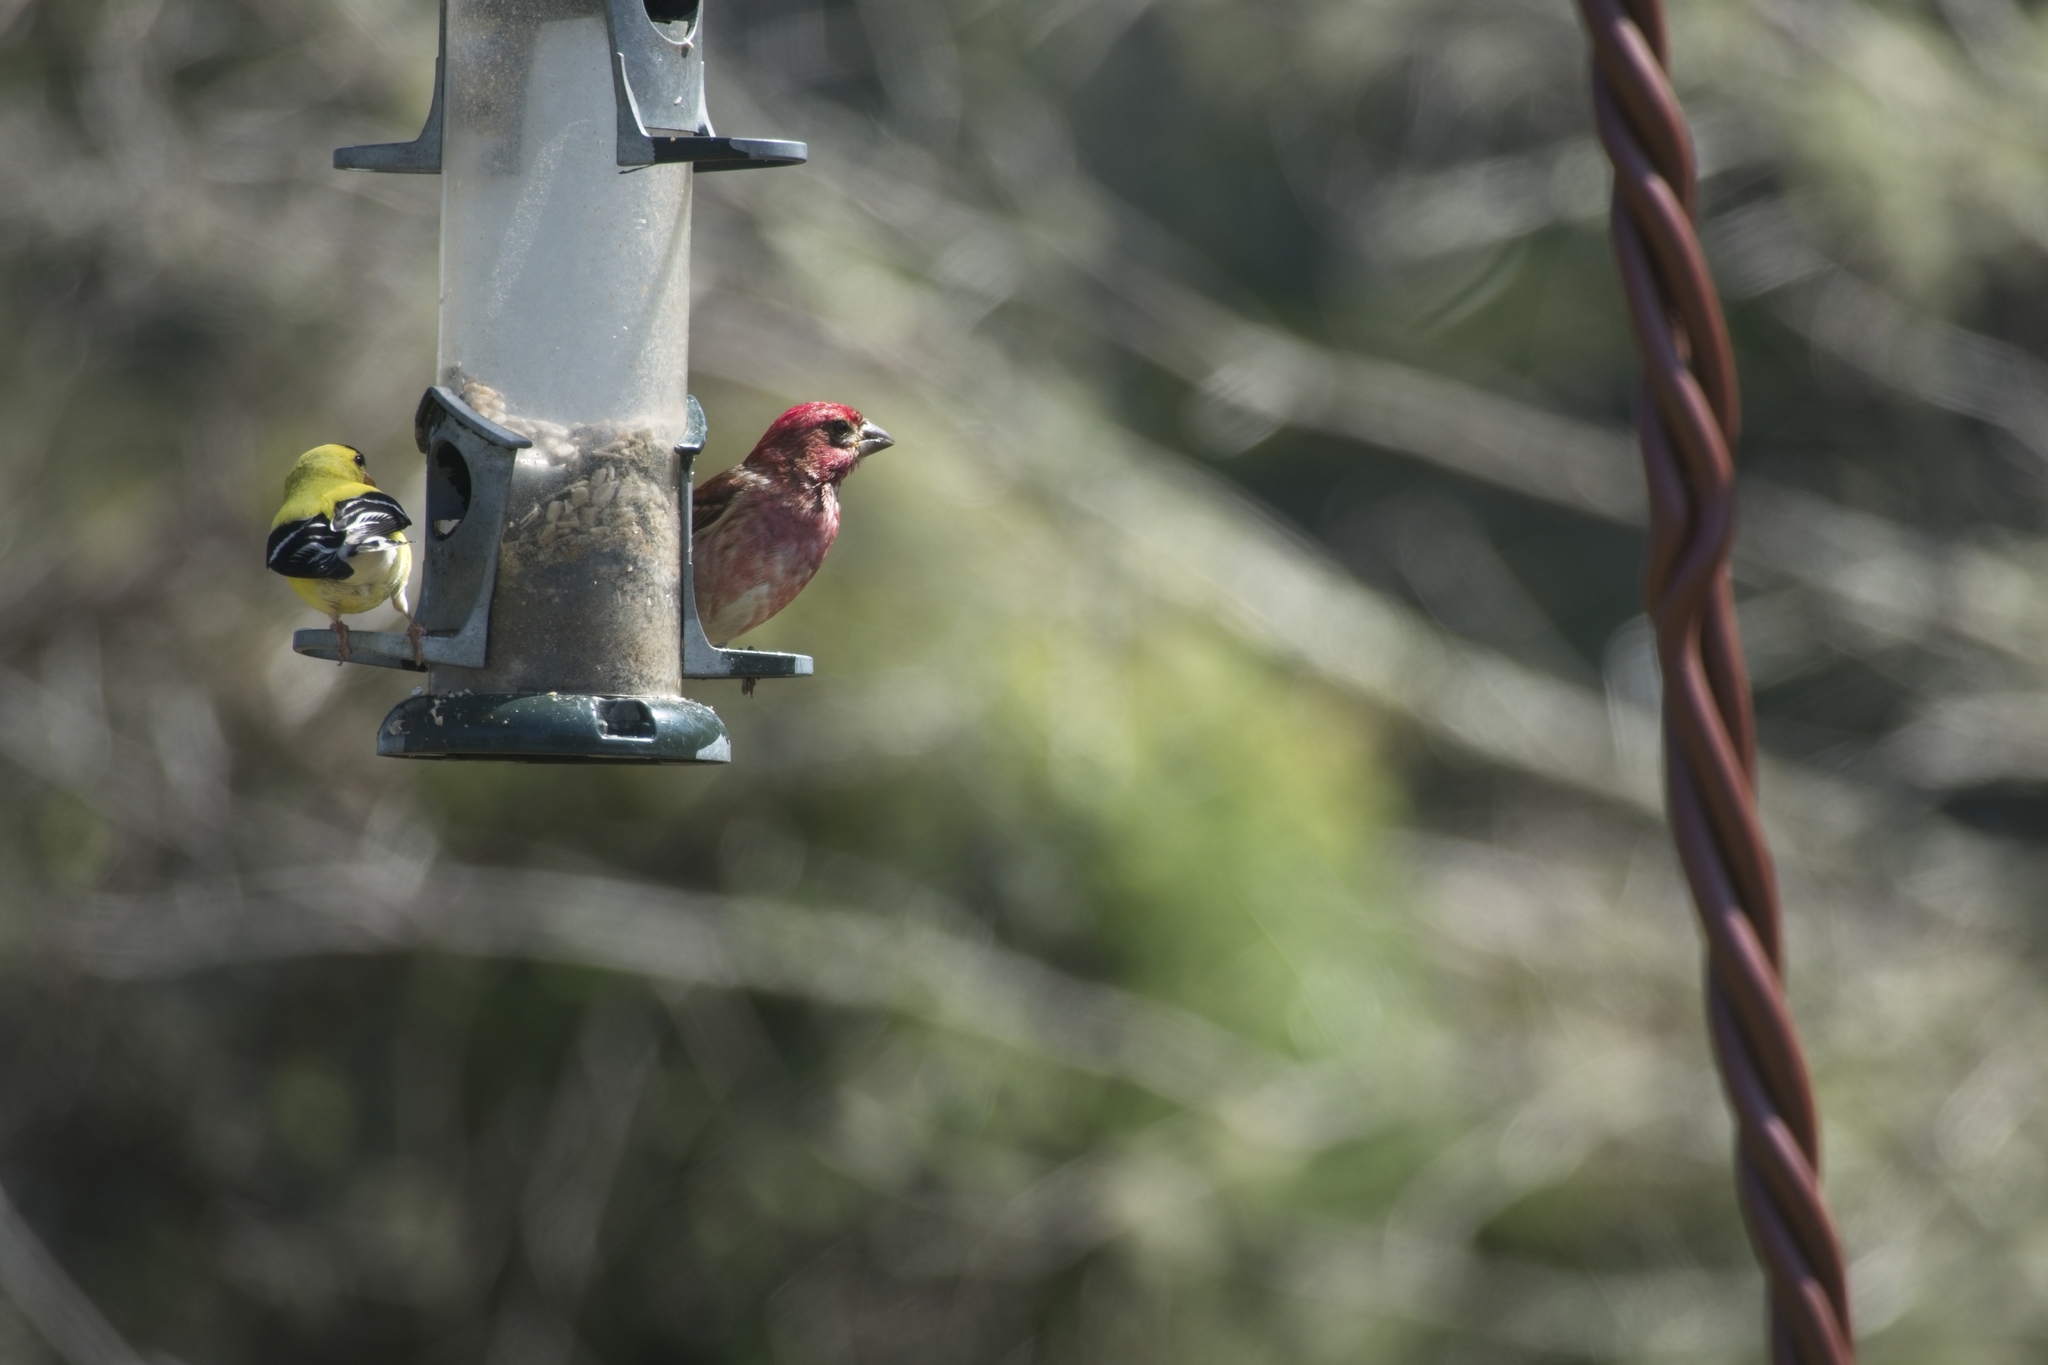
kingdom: Animalia
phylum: Chordata
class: Aves
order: Passeriformes
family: Fringillidae
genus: Spinus
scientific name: Spinus tristis
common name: American goldfinch
